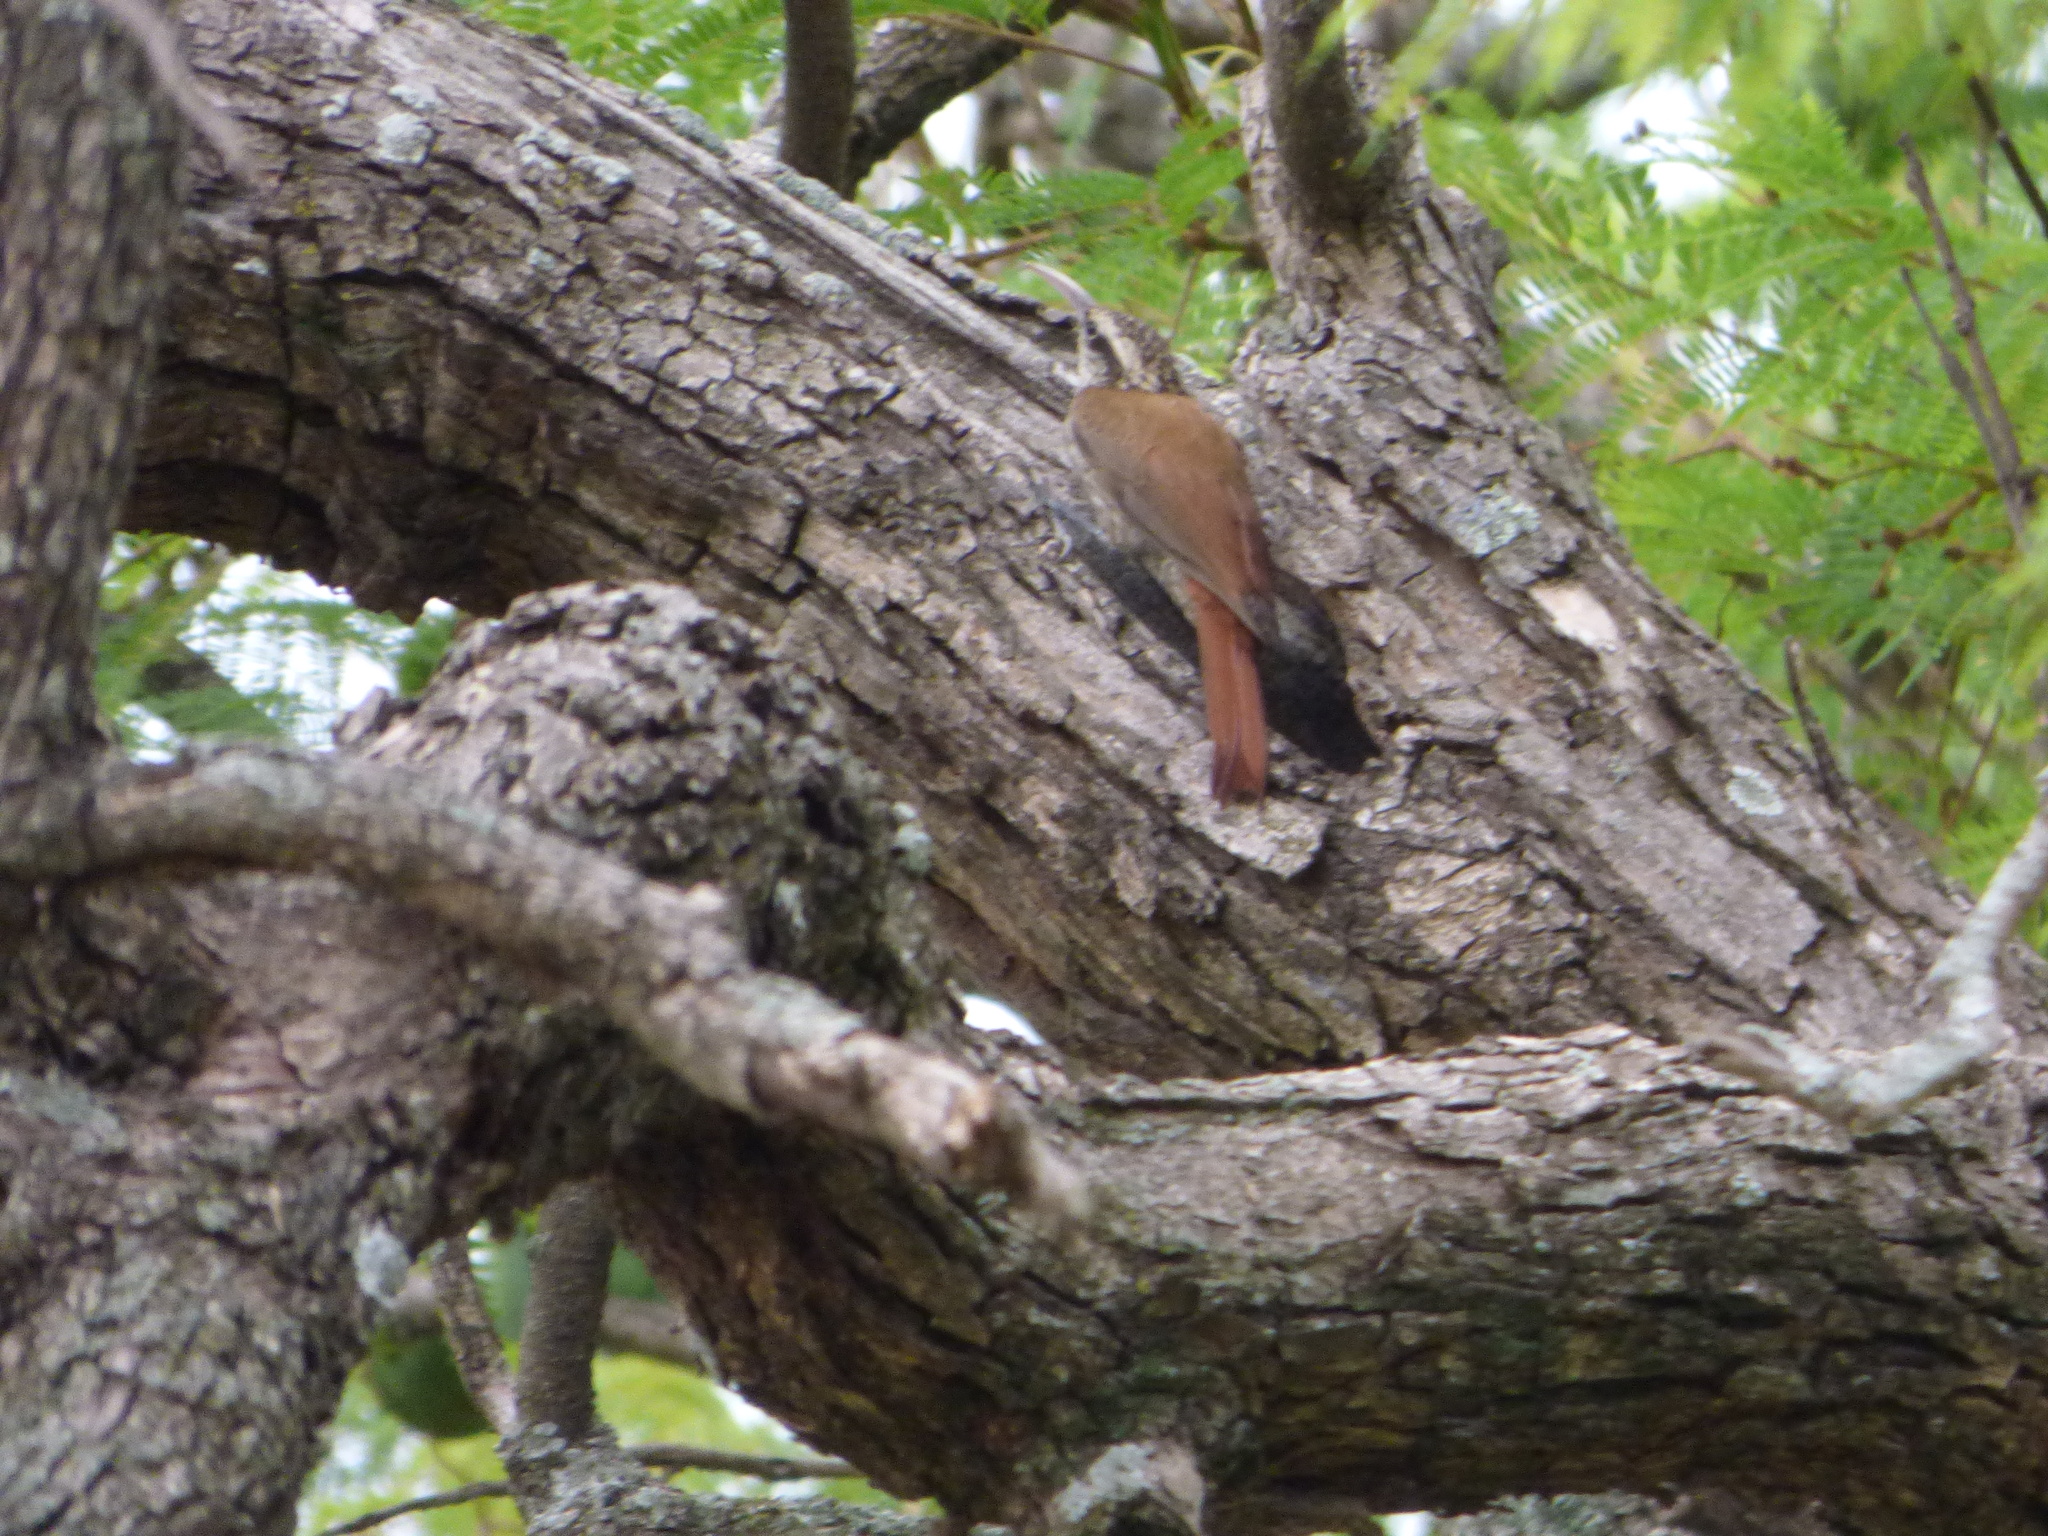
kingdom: Animalia
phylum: Chordata
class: Aves
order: Passeriformes
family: Furnariidae
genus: Lepidocolaptes
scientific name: Lepidocolaptes angustirostris
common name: Narrow-billed woodcreeper
